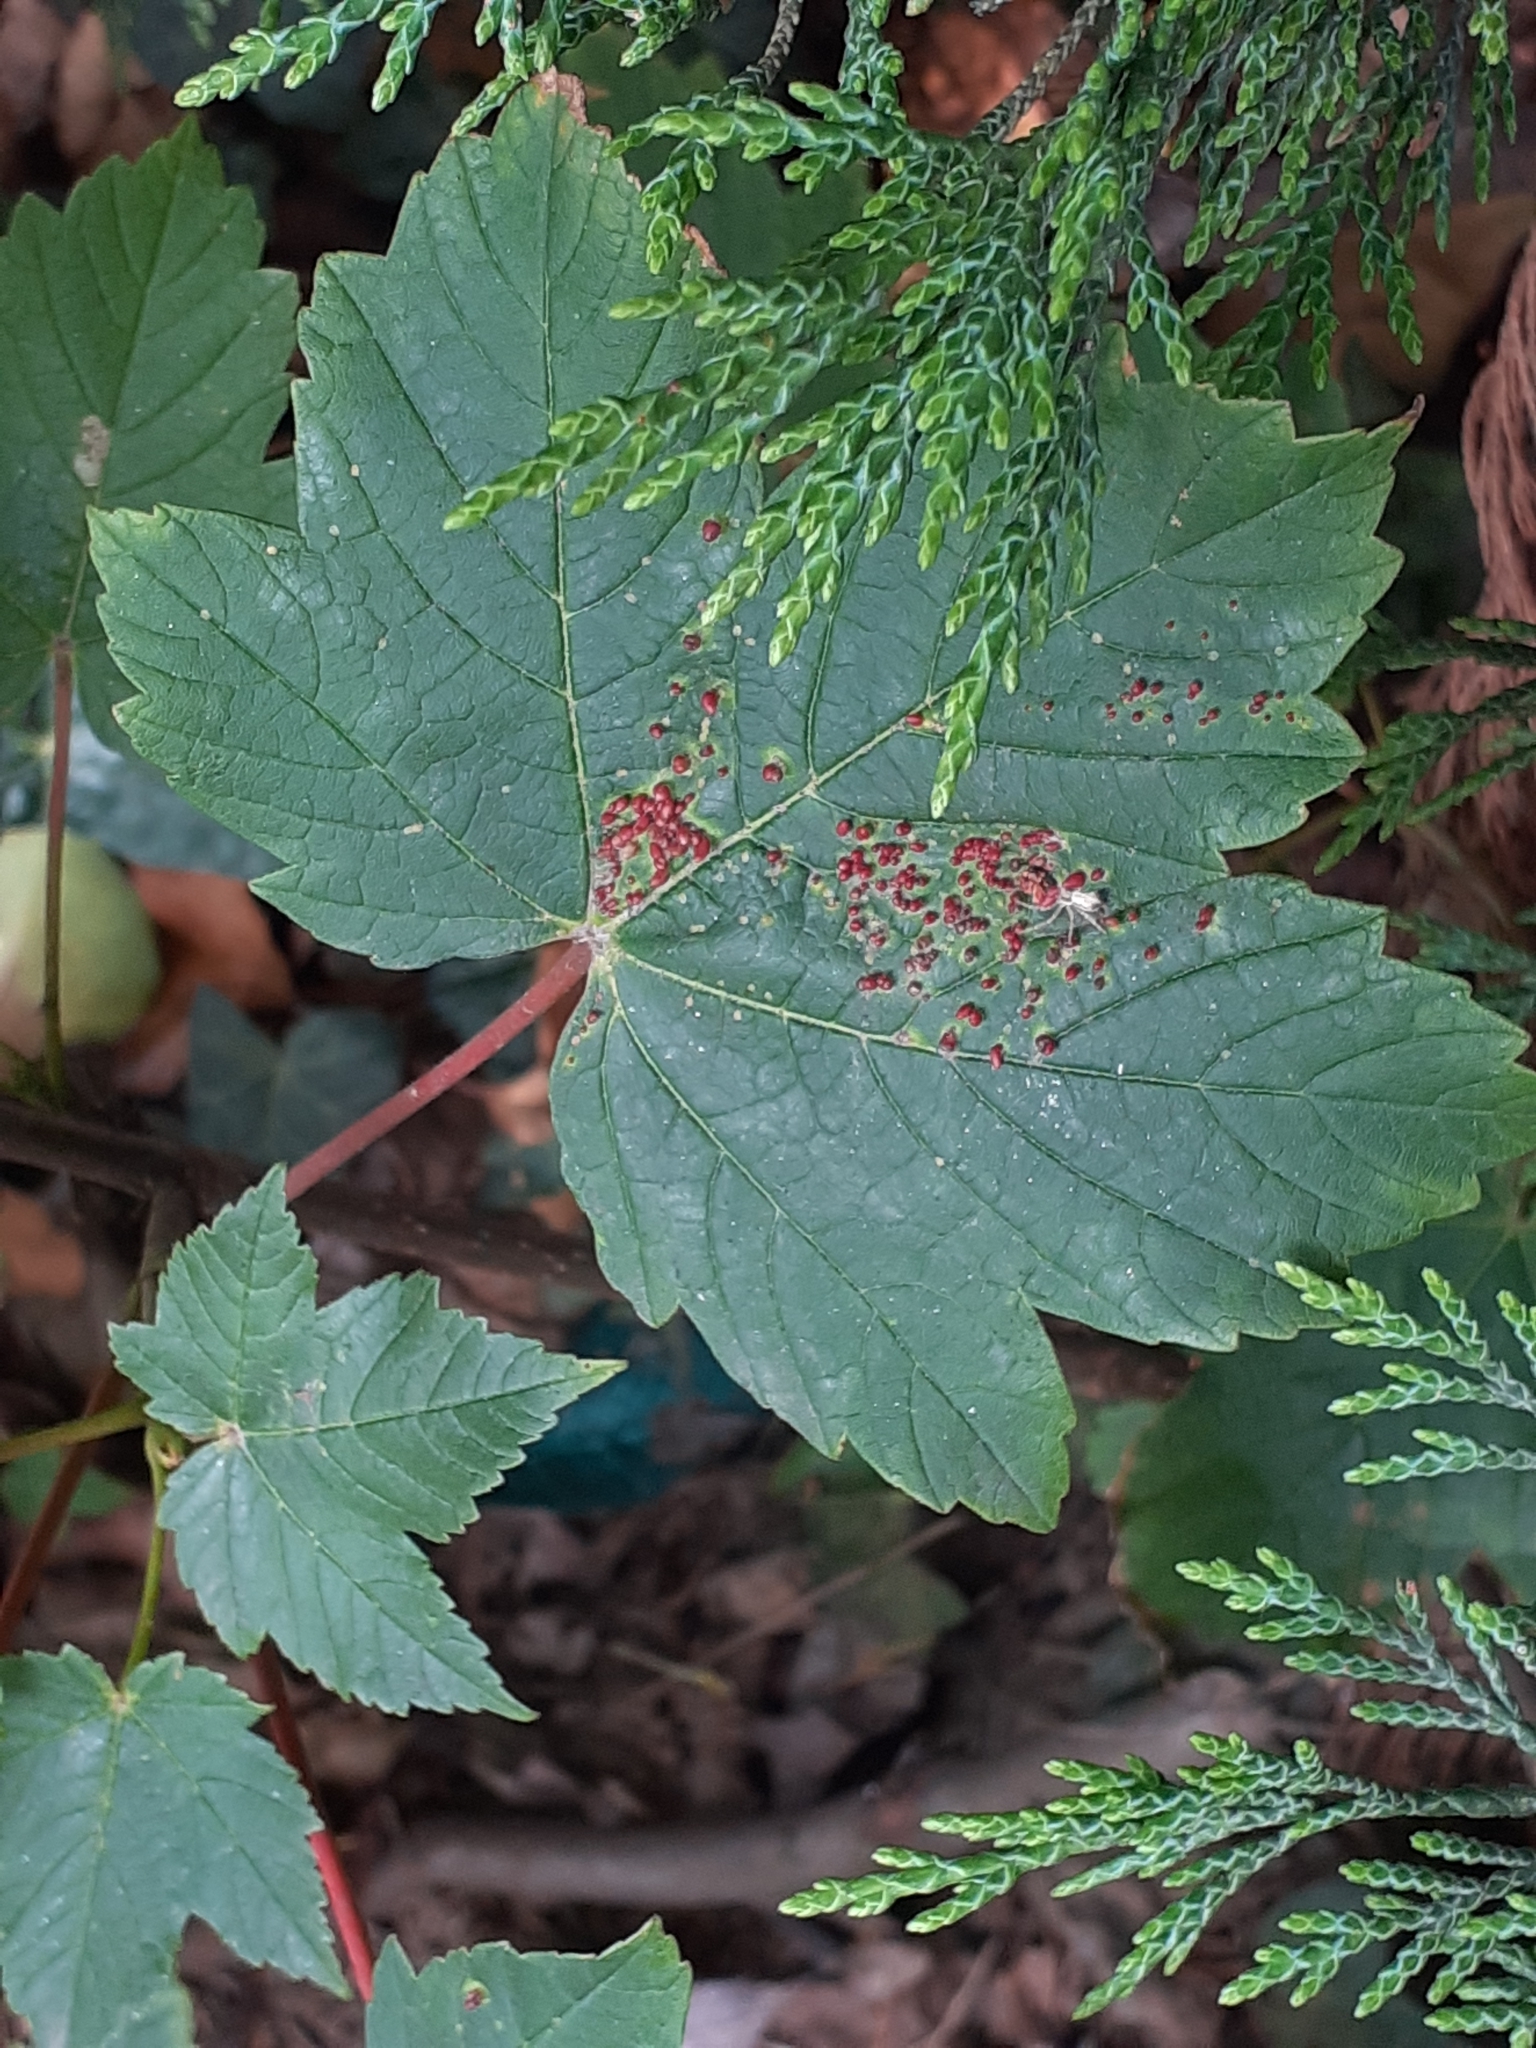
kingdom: Animalia
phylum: Arthropoda
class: Arachnida
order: Trombidiformes
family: Eriophyidae
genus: Aceria
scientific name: Aceria cephaloneus
